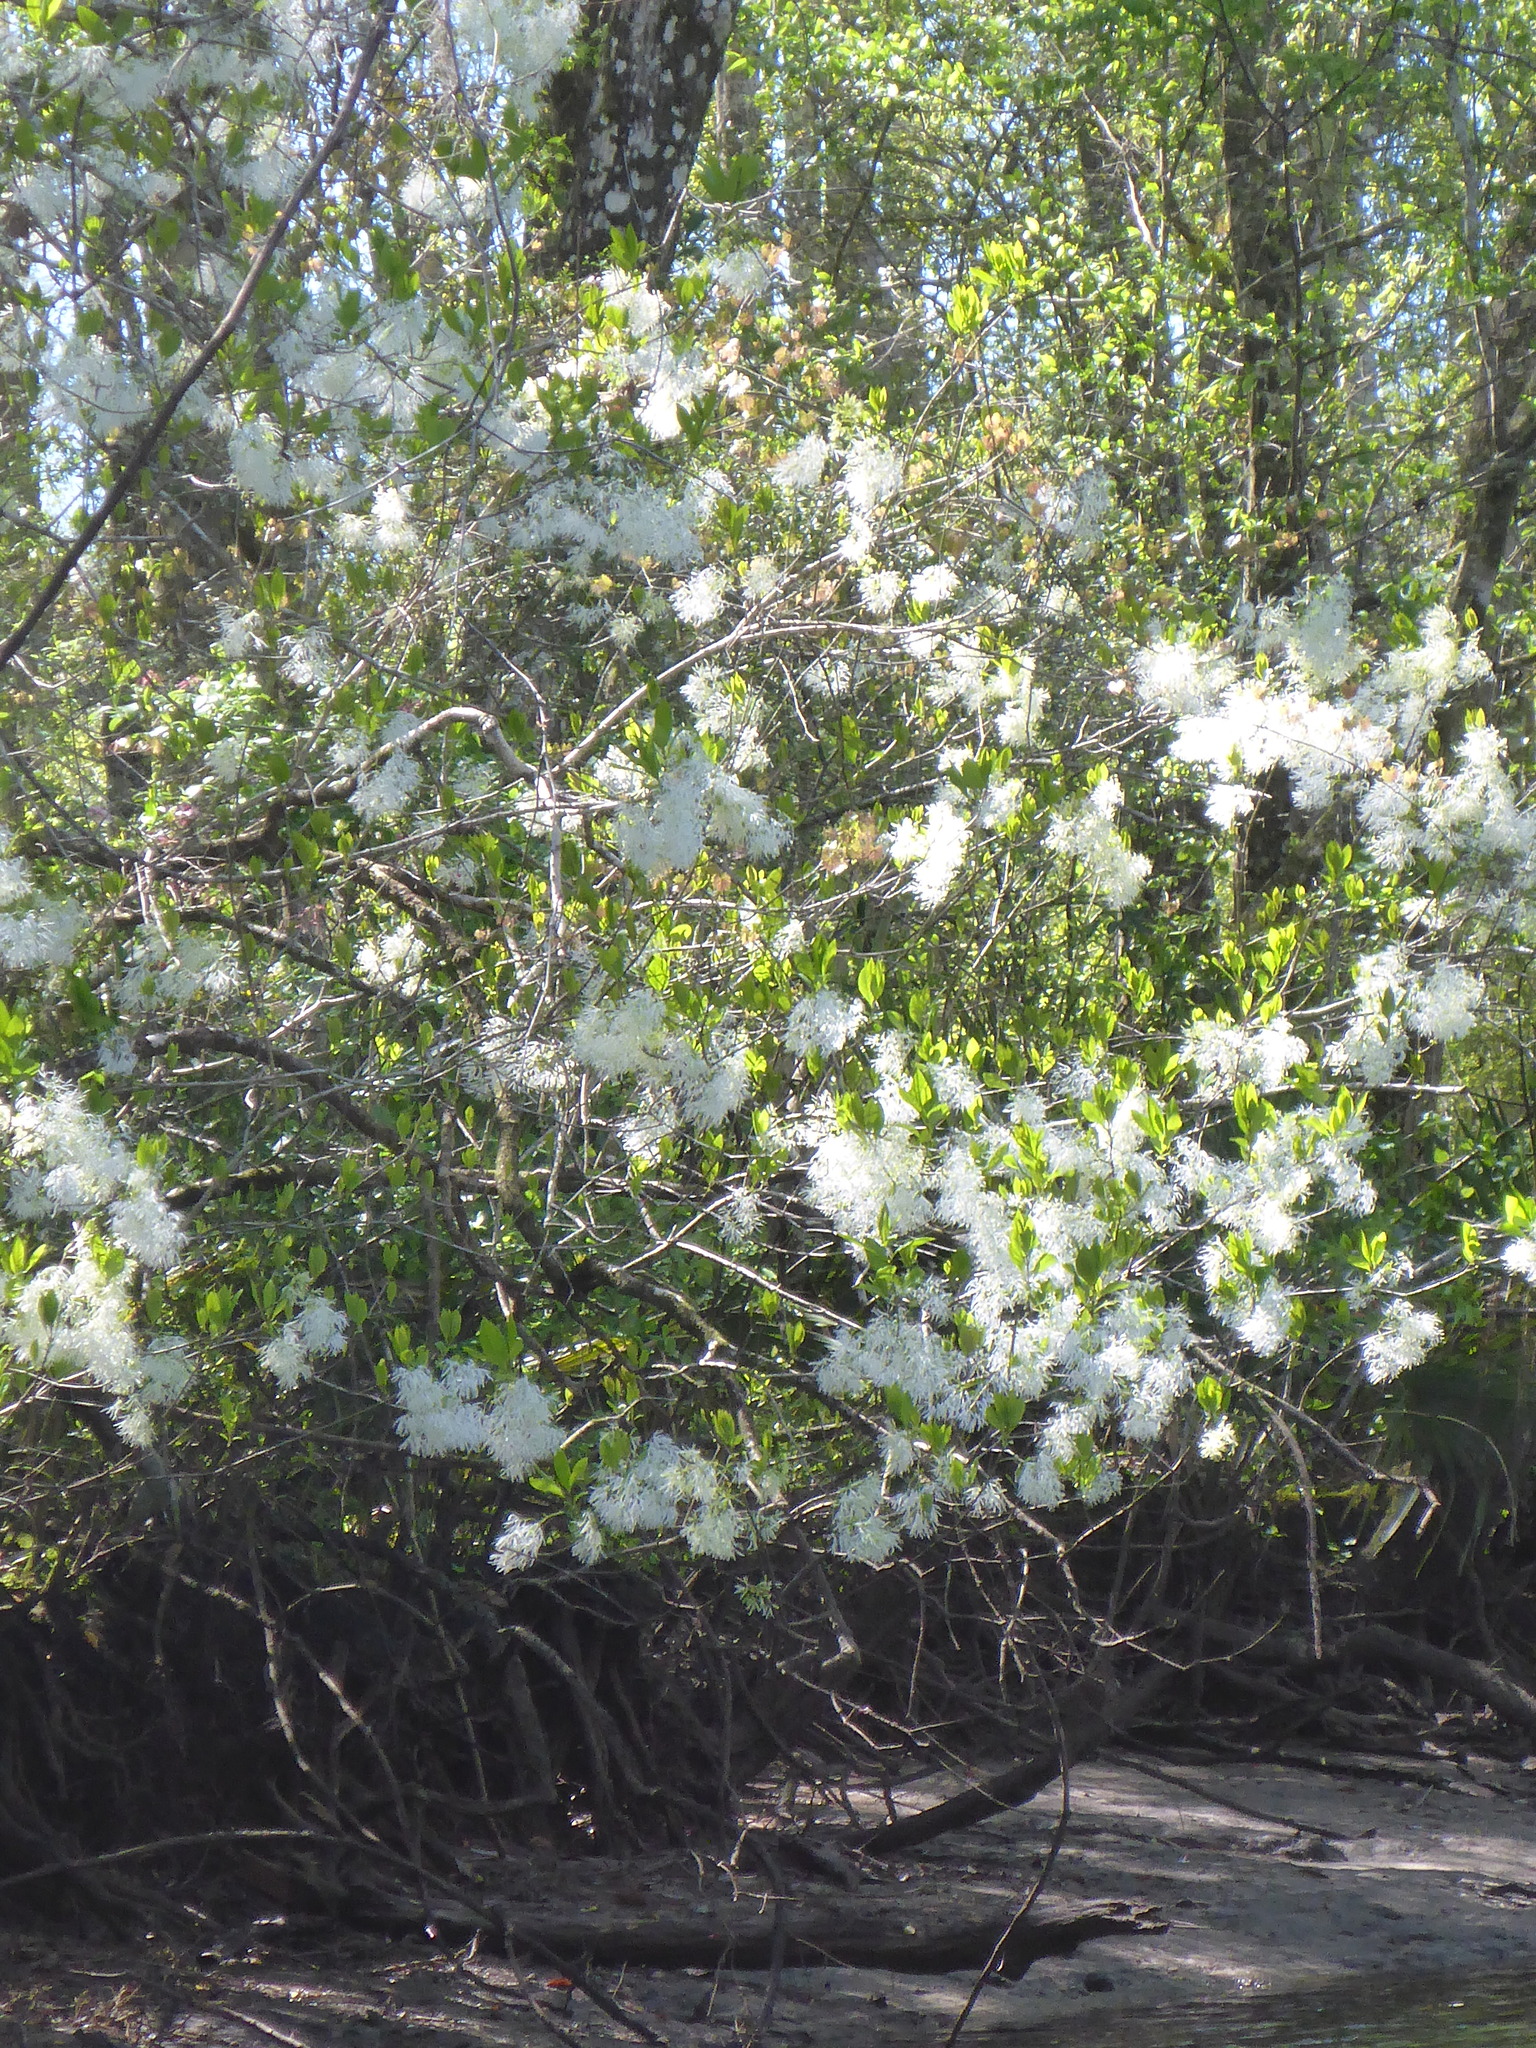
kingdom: Plantae
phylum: Tracheophyta
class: Magnoliopsida
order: Lamiales
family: Oleaceae
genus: Chionanthus
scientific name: Chionanthus virginicus
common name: American fringetree
